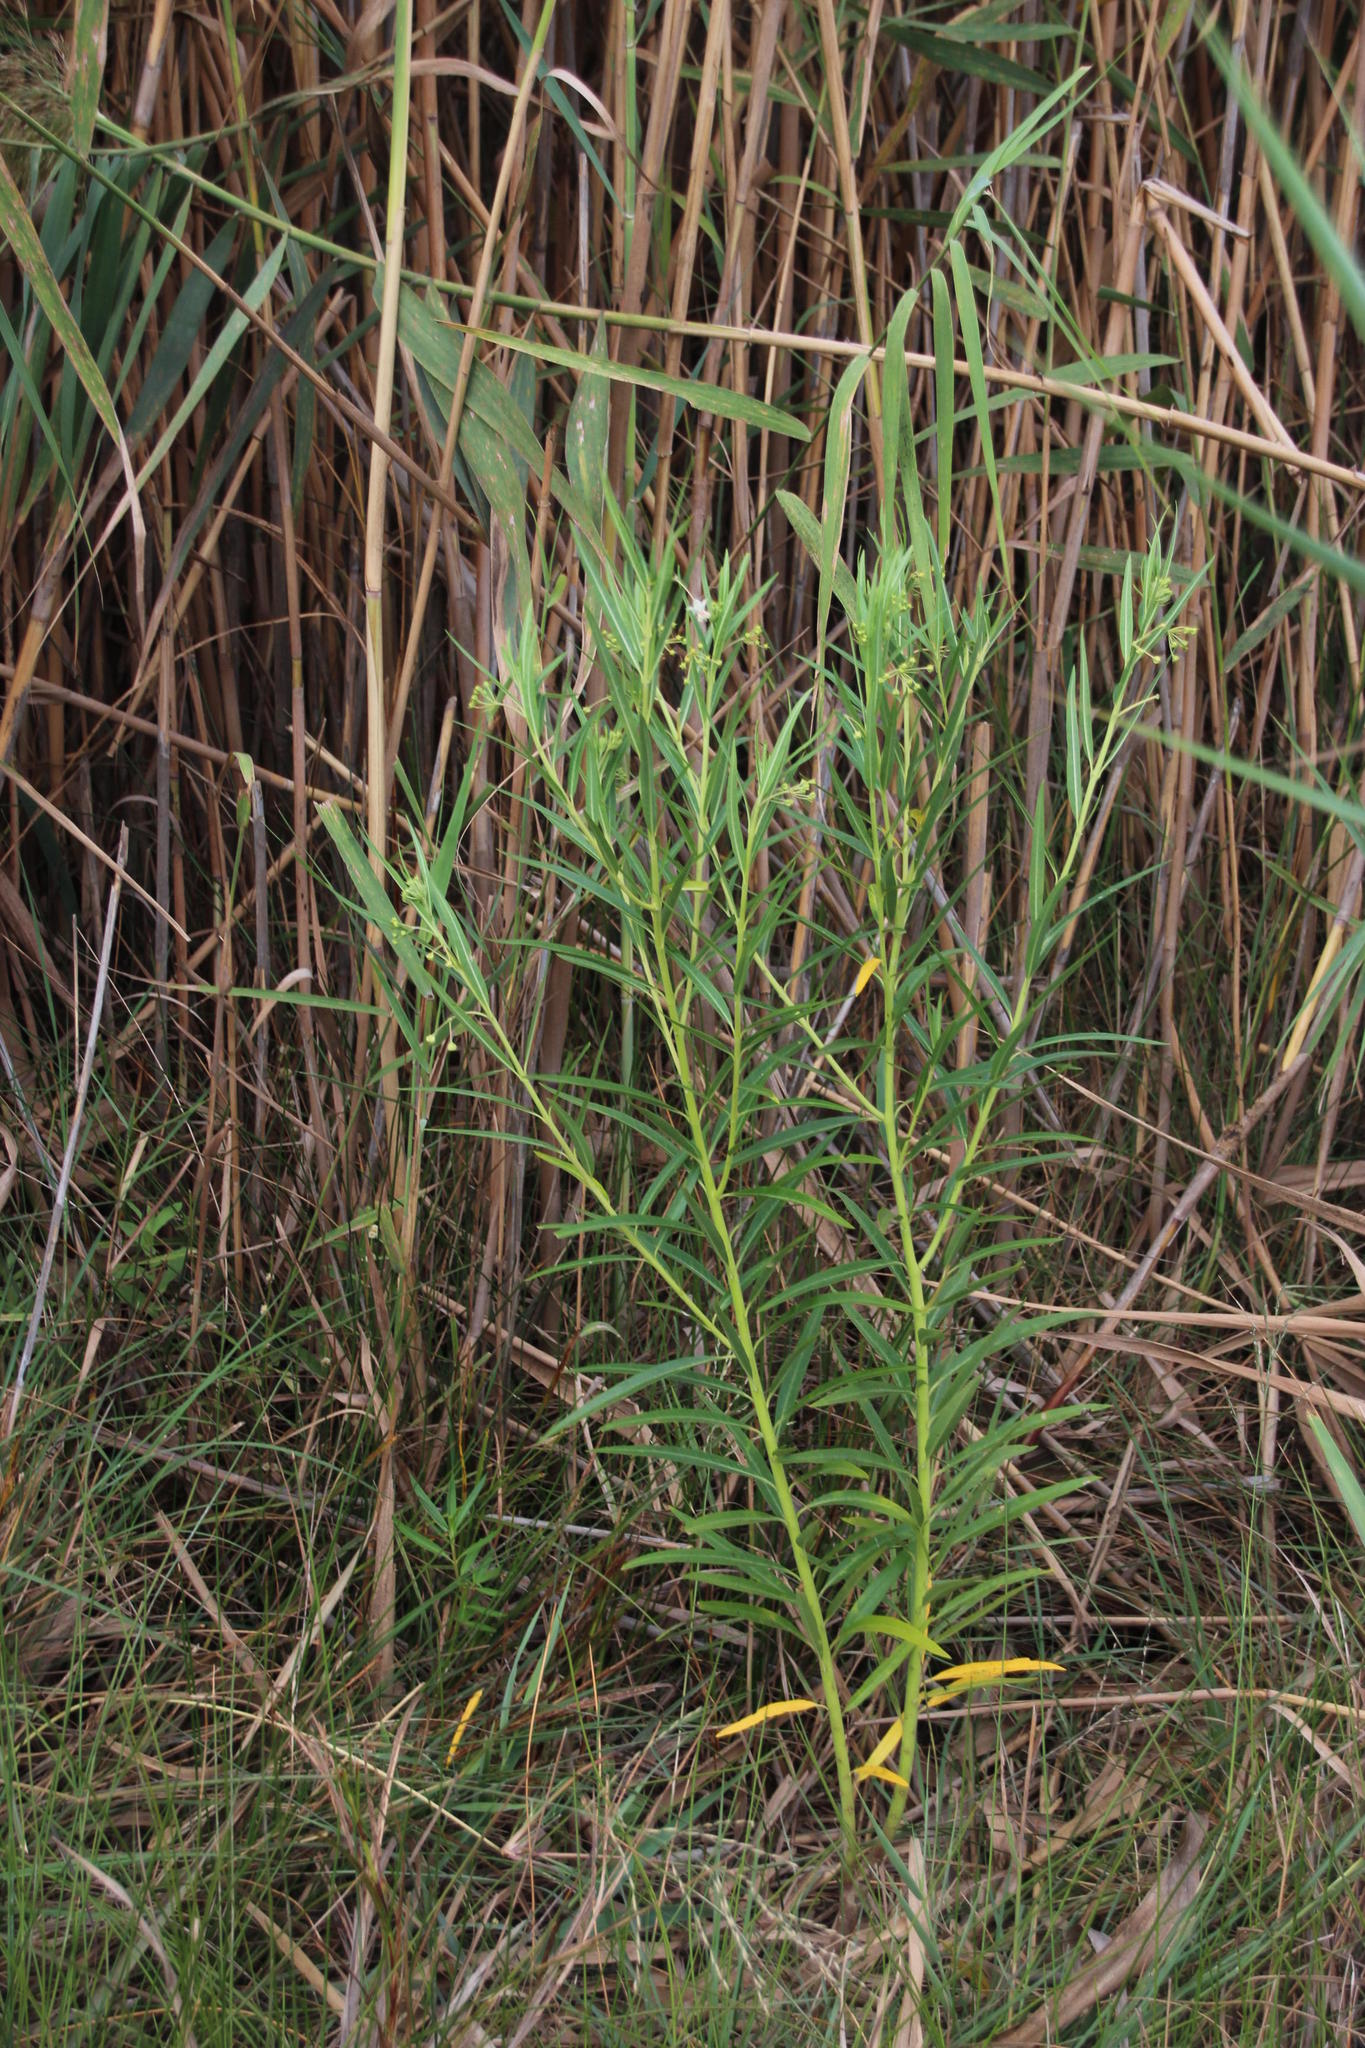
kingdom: Plantae
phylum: Tracheophyta
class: Magnoliopsida
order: Gentianales
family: Apocynaceae
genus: Gomphocarpus
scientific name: Gomphocarpus fruticosus
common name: Milkweed
